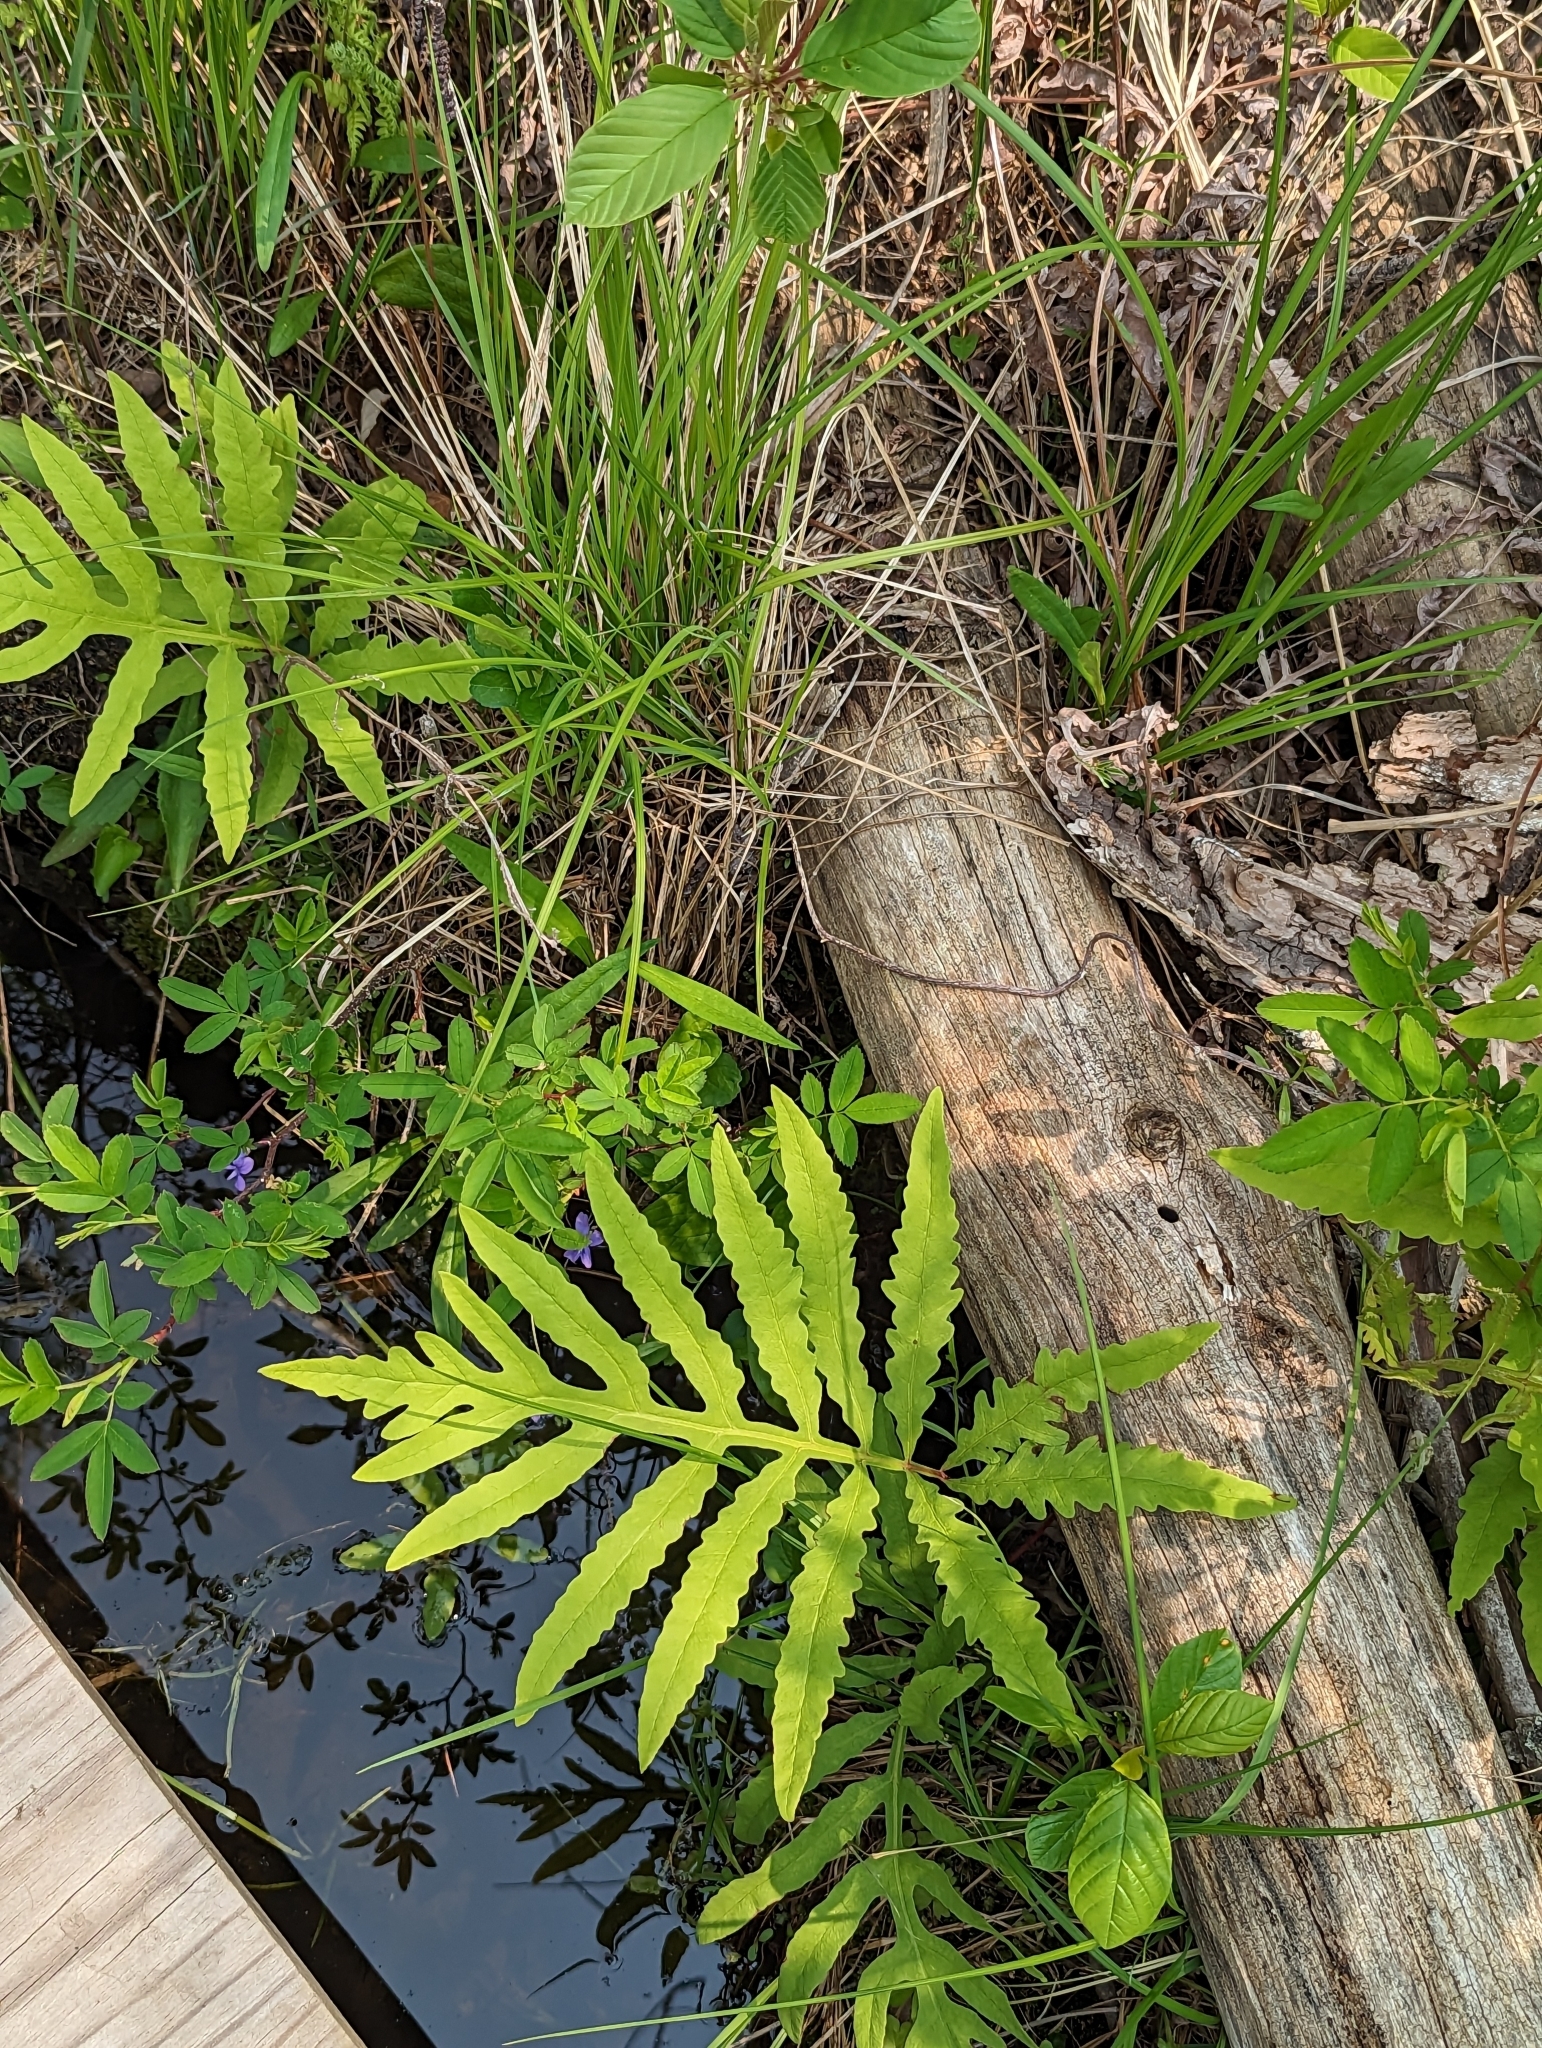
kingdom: Plantae
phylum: Tracheophyta
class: Polypodiopsida
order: Polypodiales
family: Onocleaceae
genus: Onoclea
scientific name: Onoclea sensibilis
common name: Sensitive fern
